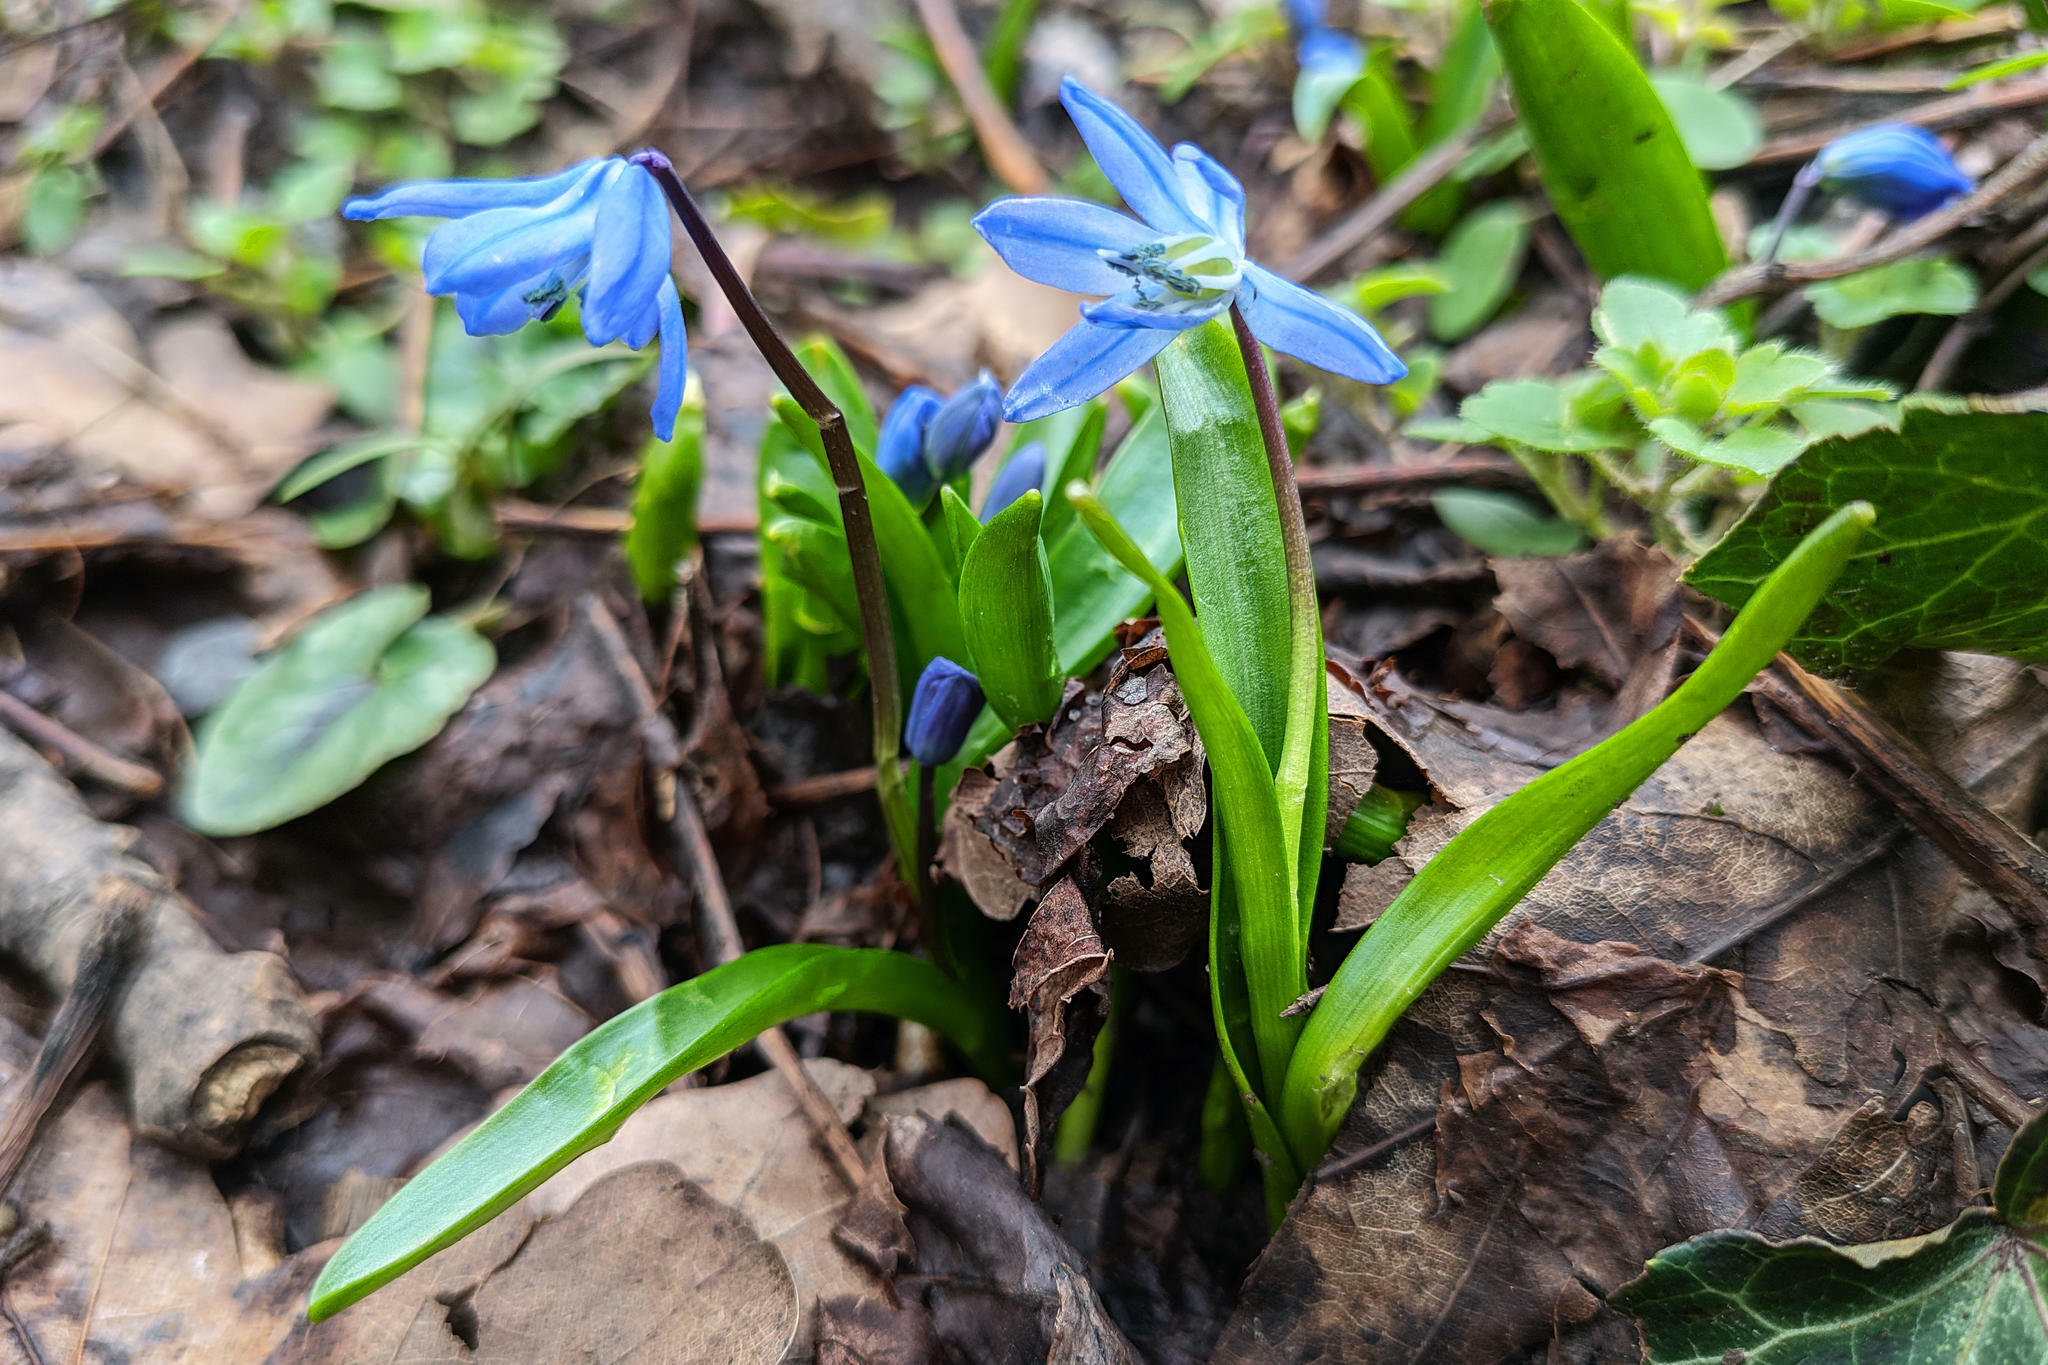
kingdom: Plantae
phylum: Tracheophyta
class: Liliopsida
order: Asparagales
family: Asparagaceae
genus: Scilla
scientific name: Scilla siberica
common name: Siberian squill
